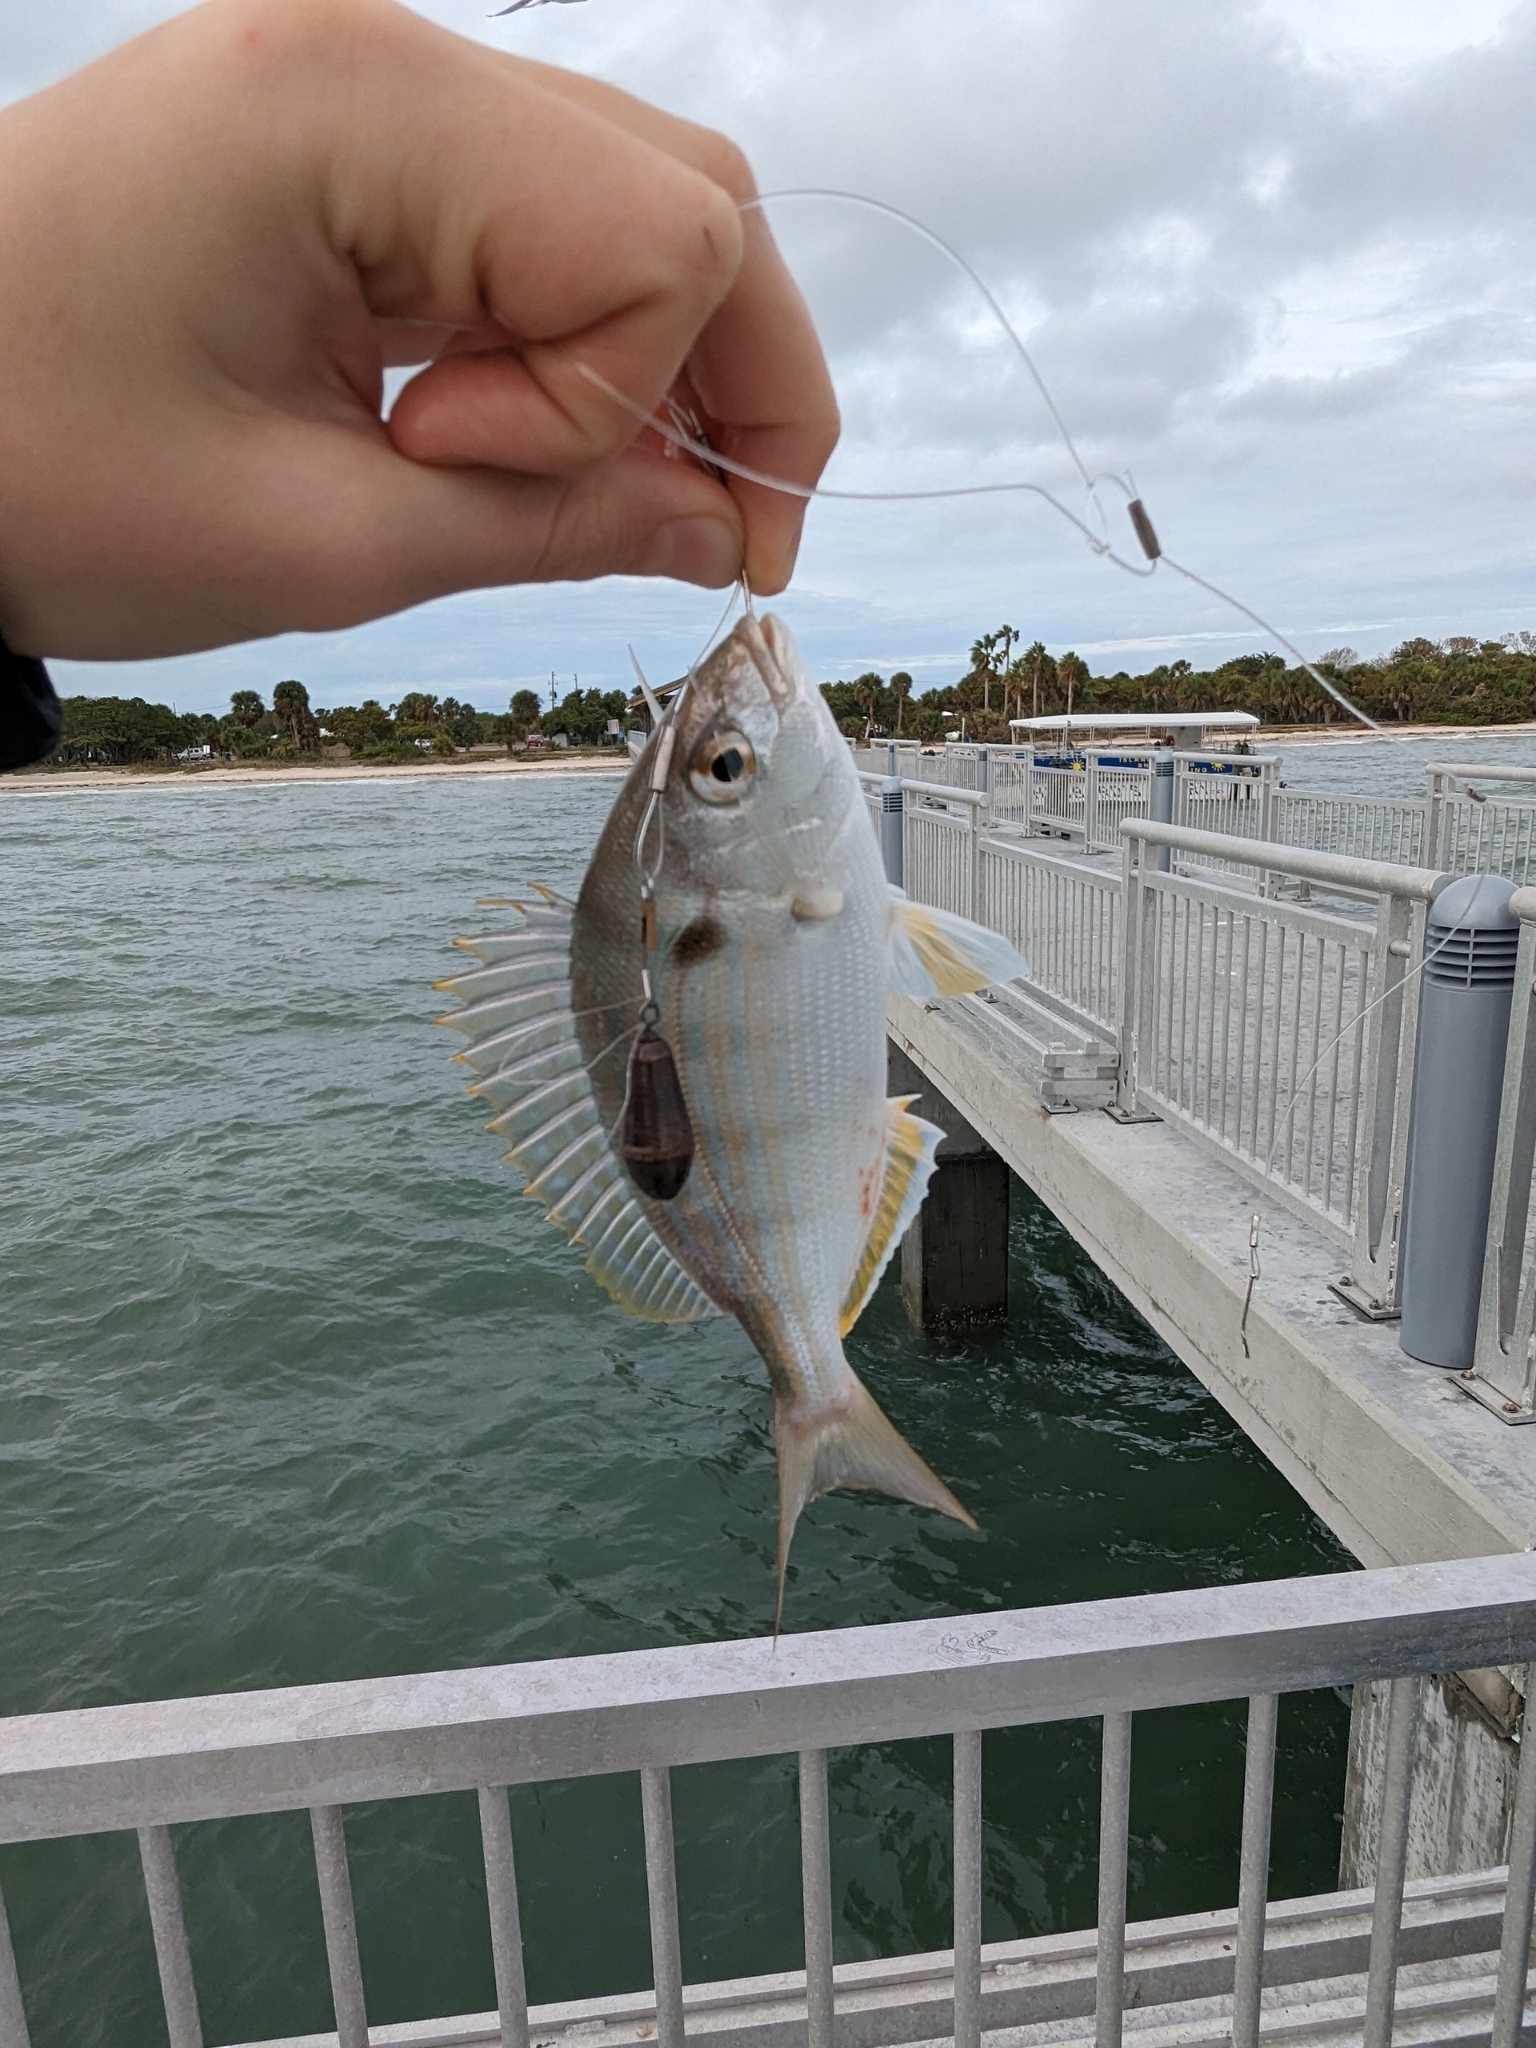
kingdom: Animalia
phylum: Chordata
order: Perciformes
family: Sparidae
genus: Lagodon
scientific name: Lagodon rhomboides
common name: Pinfish
